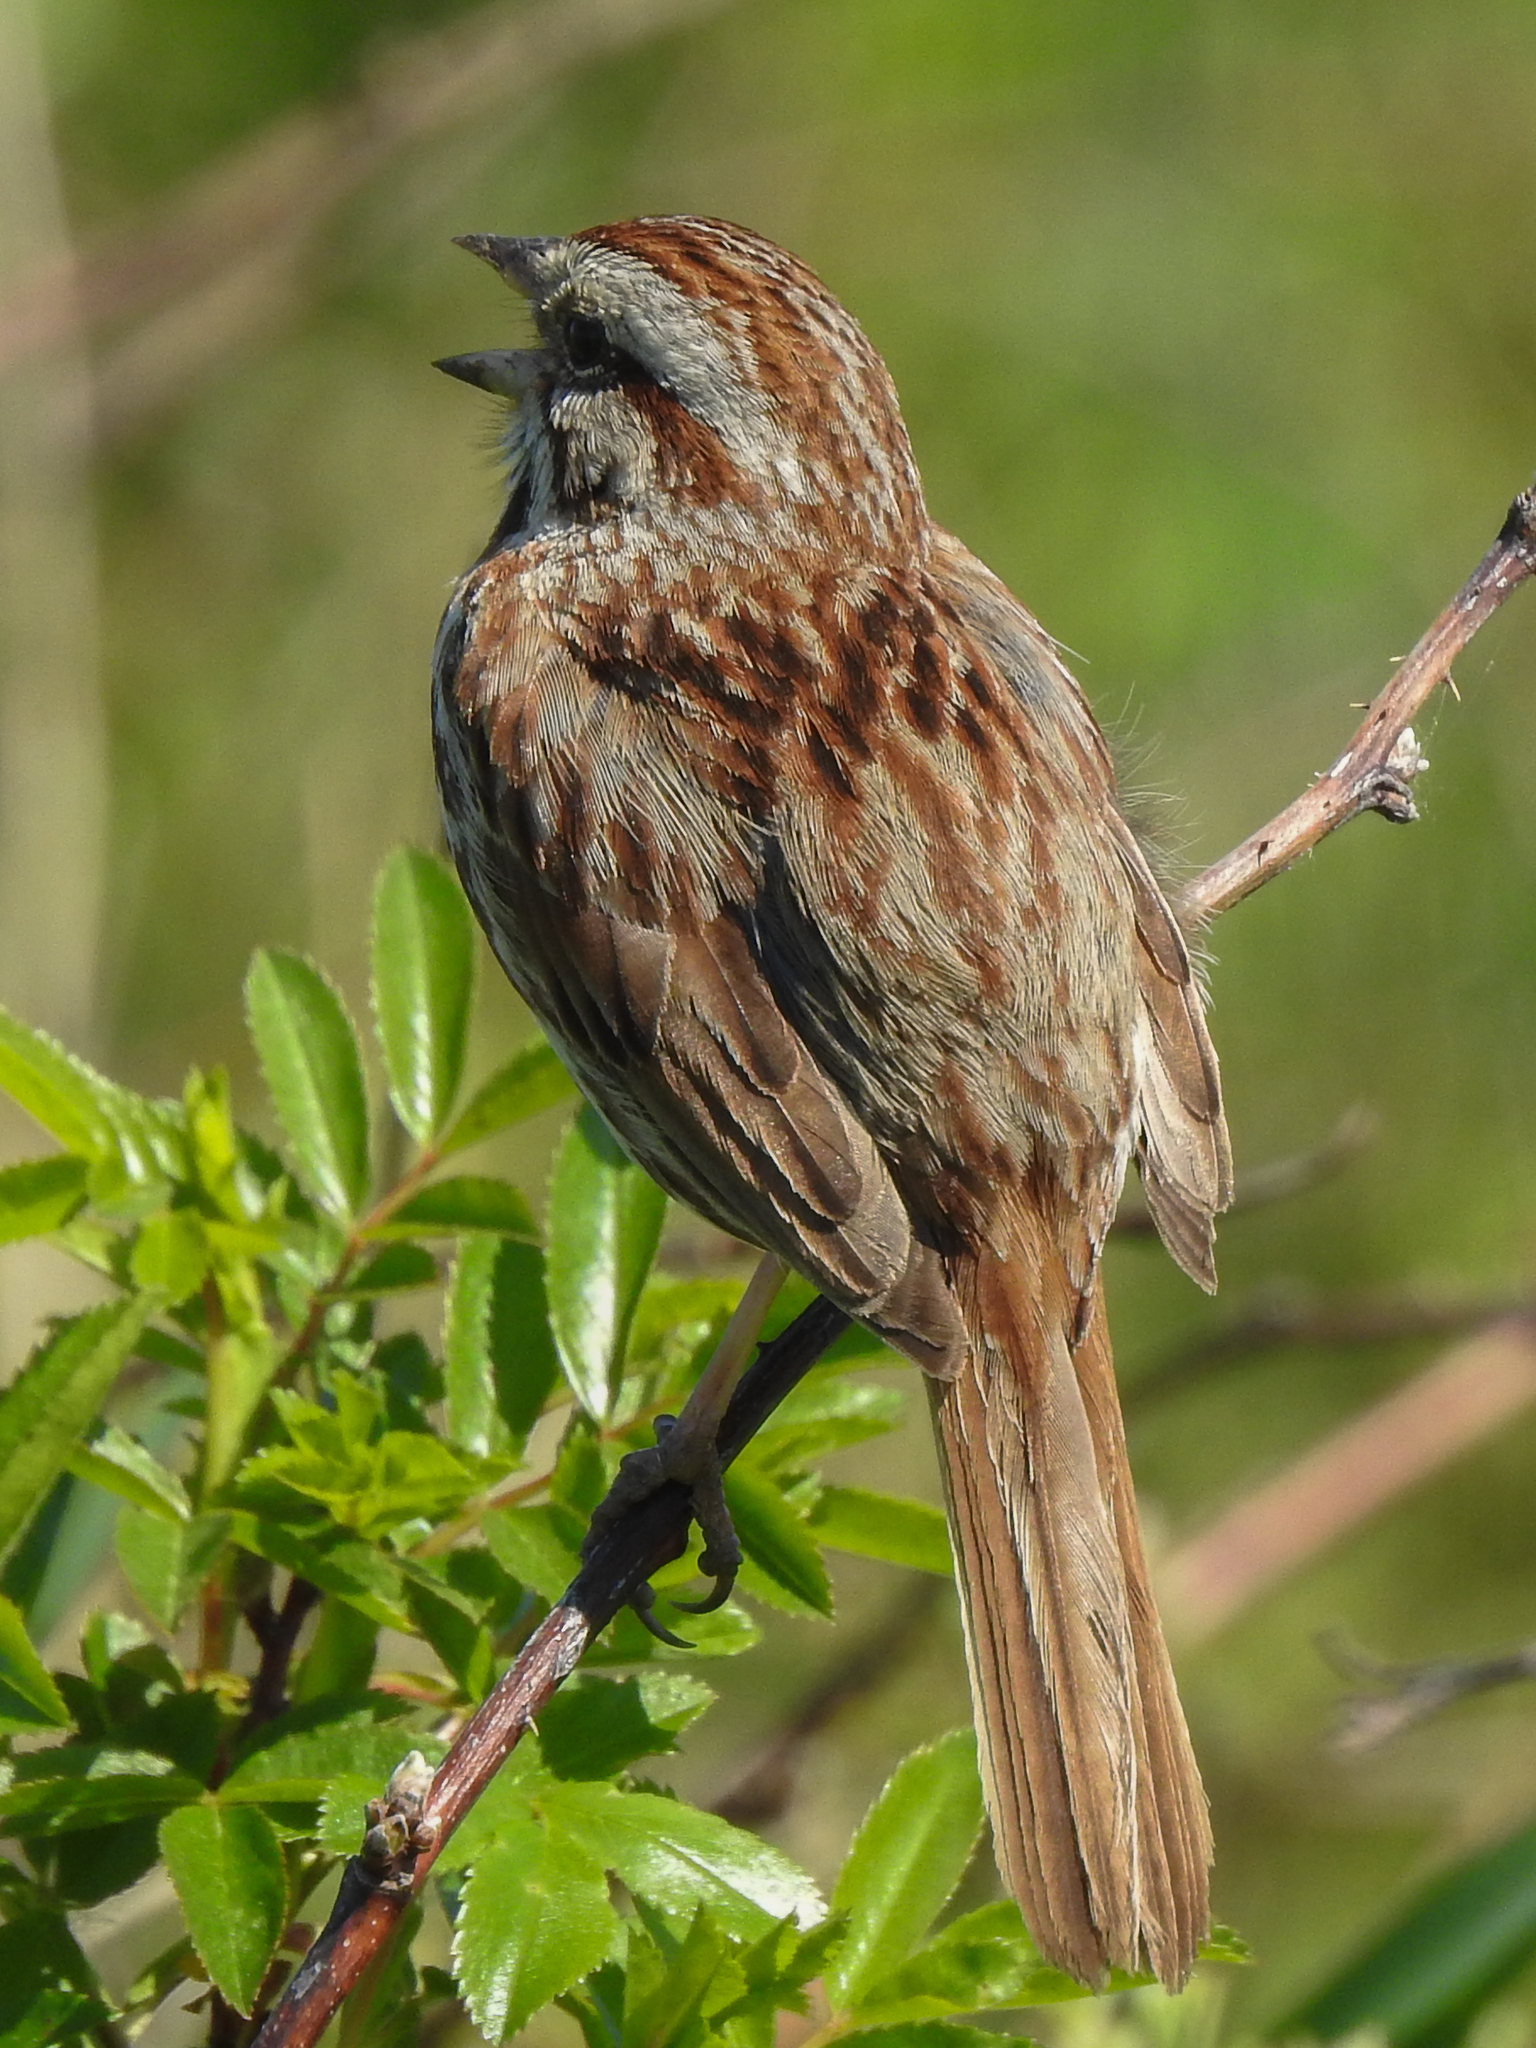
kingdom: Animalia
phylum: Chordata
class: Aves
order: Passeriformes
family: Passerellidae
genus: Melospiza
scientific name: Melospiza melodia
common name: Song sparrow
